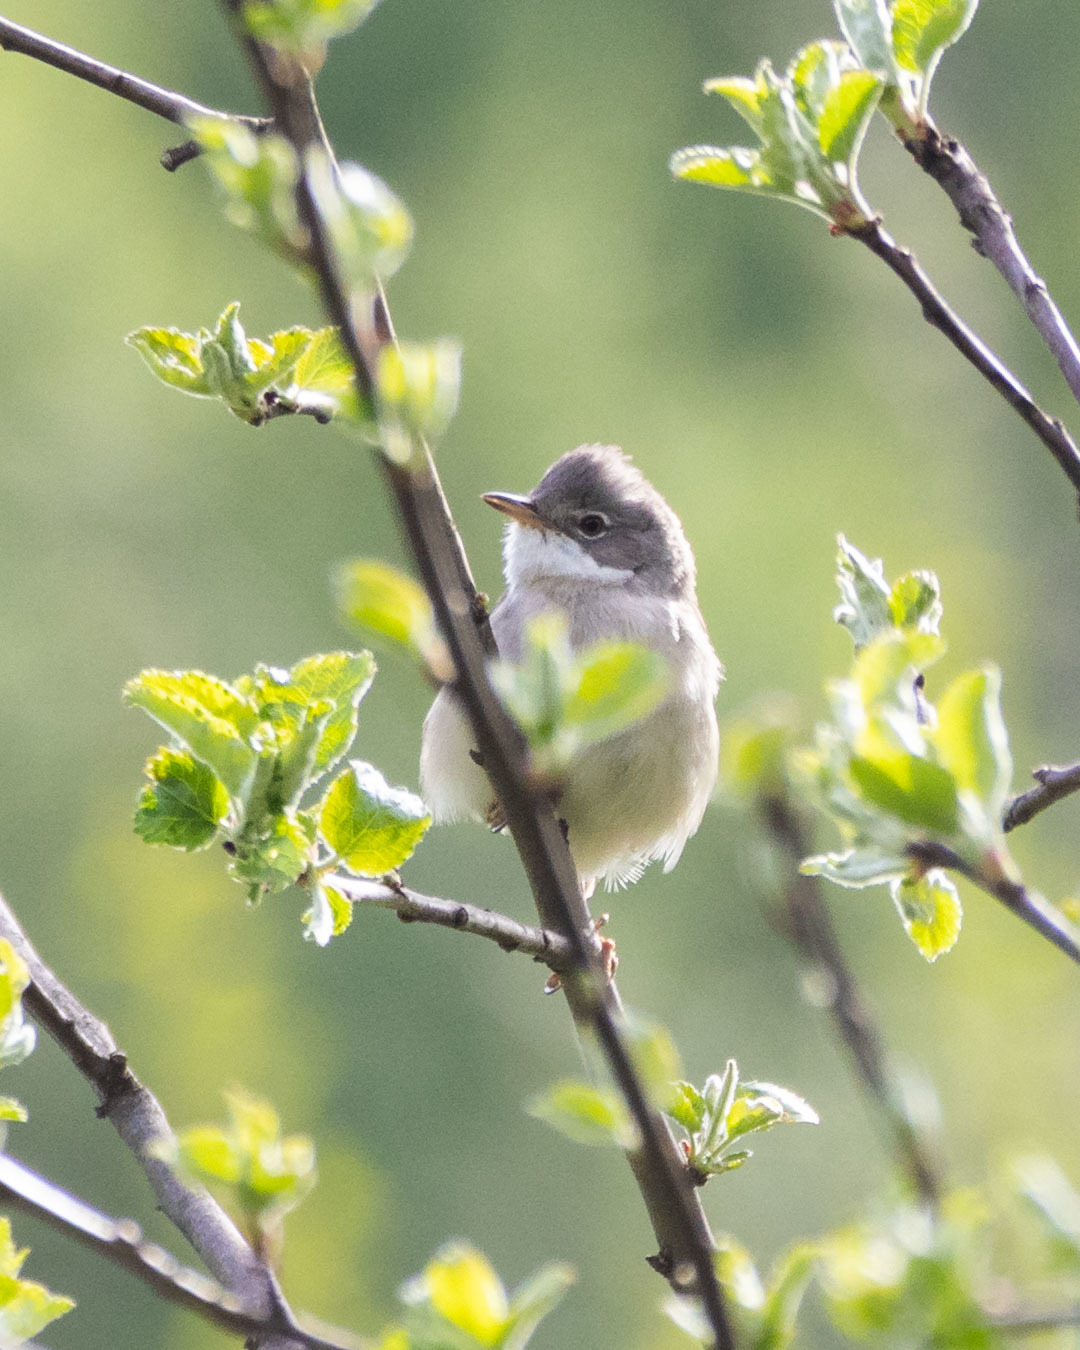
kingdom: Animalia
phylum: Chordata
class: Aves
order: Passeriformes
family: Sylviidae
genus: Sylvia
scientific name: Sylvia communis
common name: Common whitethroat
